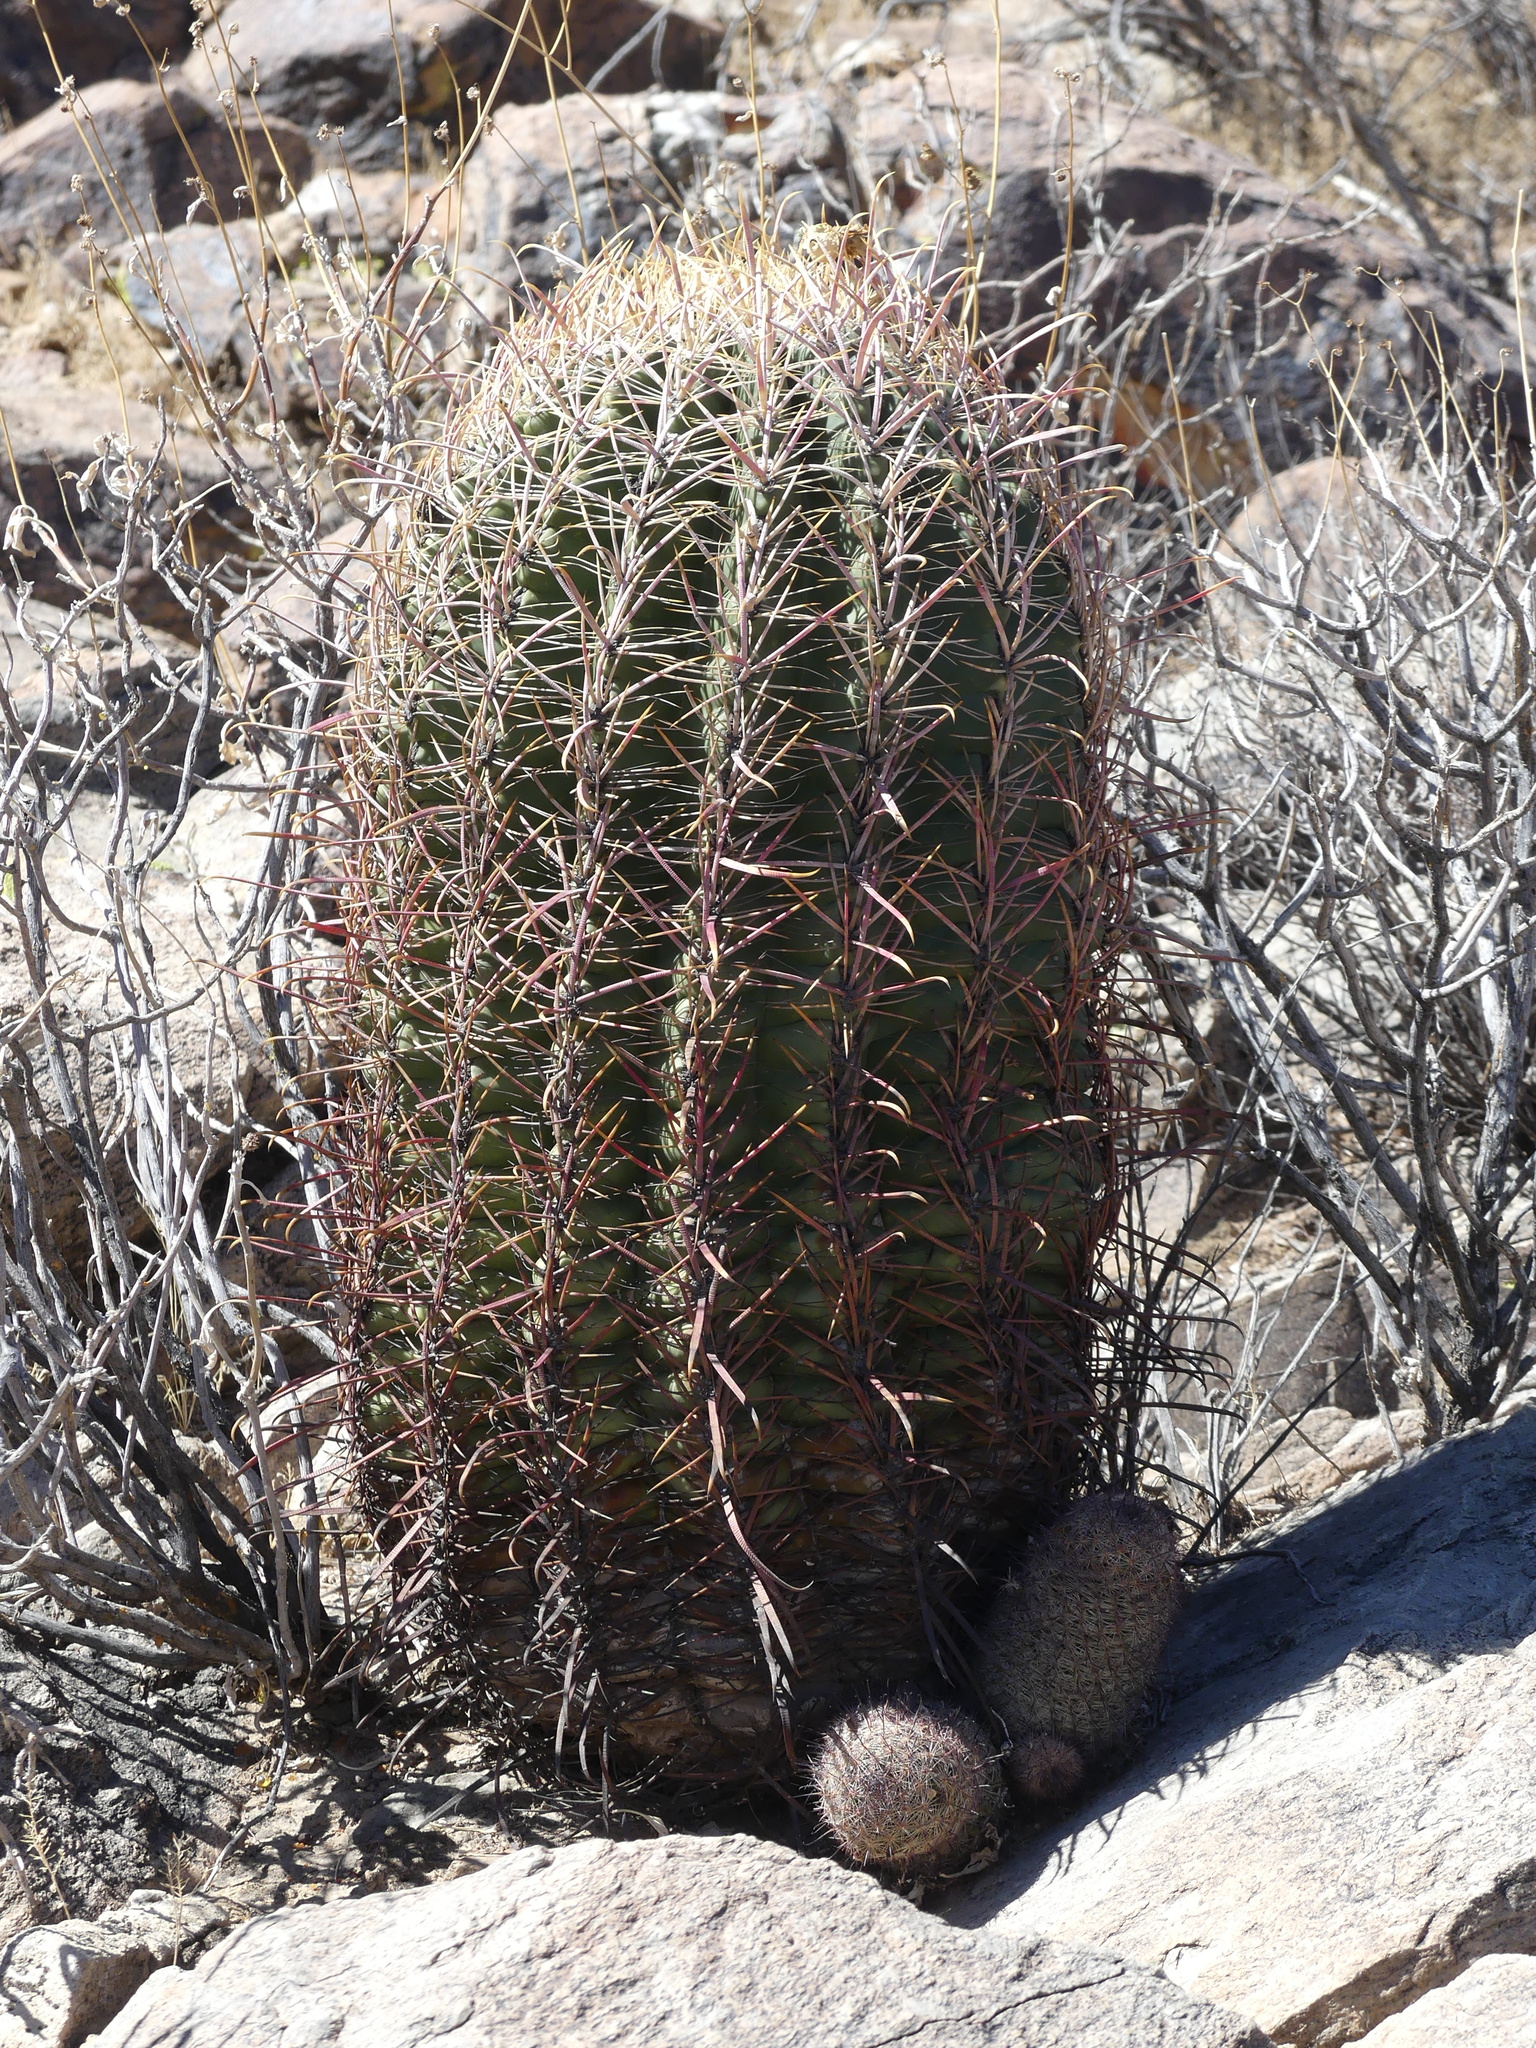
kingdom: Plantae
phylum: Tracheophyta
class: Magnoliopsida
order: Caryophyllales
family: Cactaceae
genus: Ferocactus
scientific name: Ferocactus cylindraceus
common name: California barrel cactus
